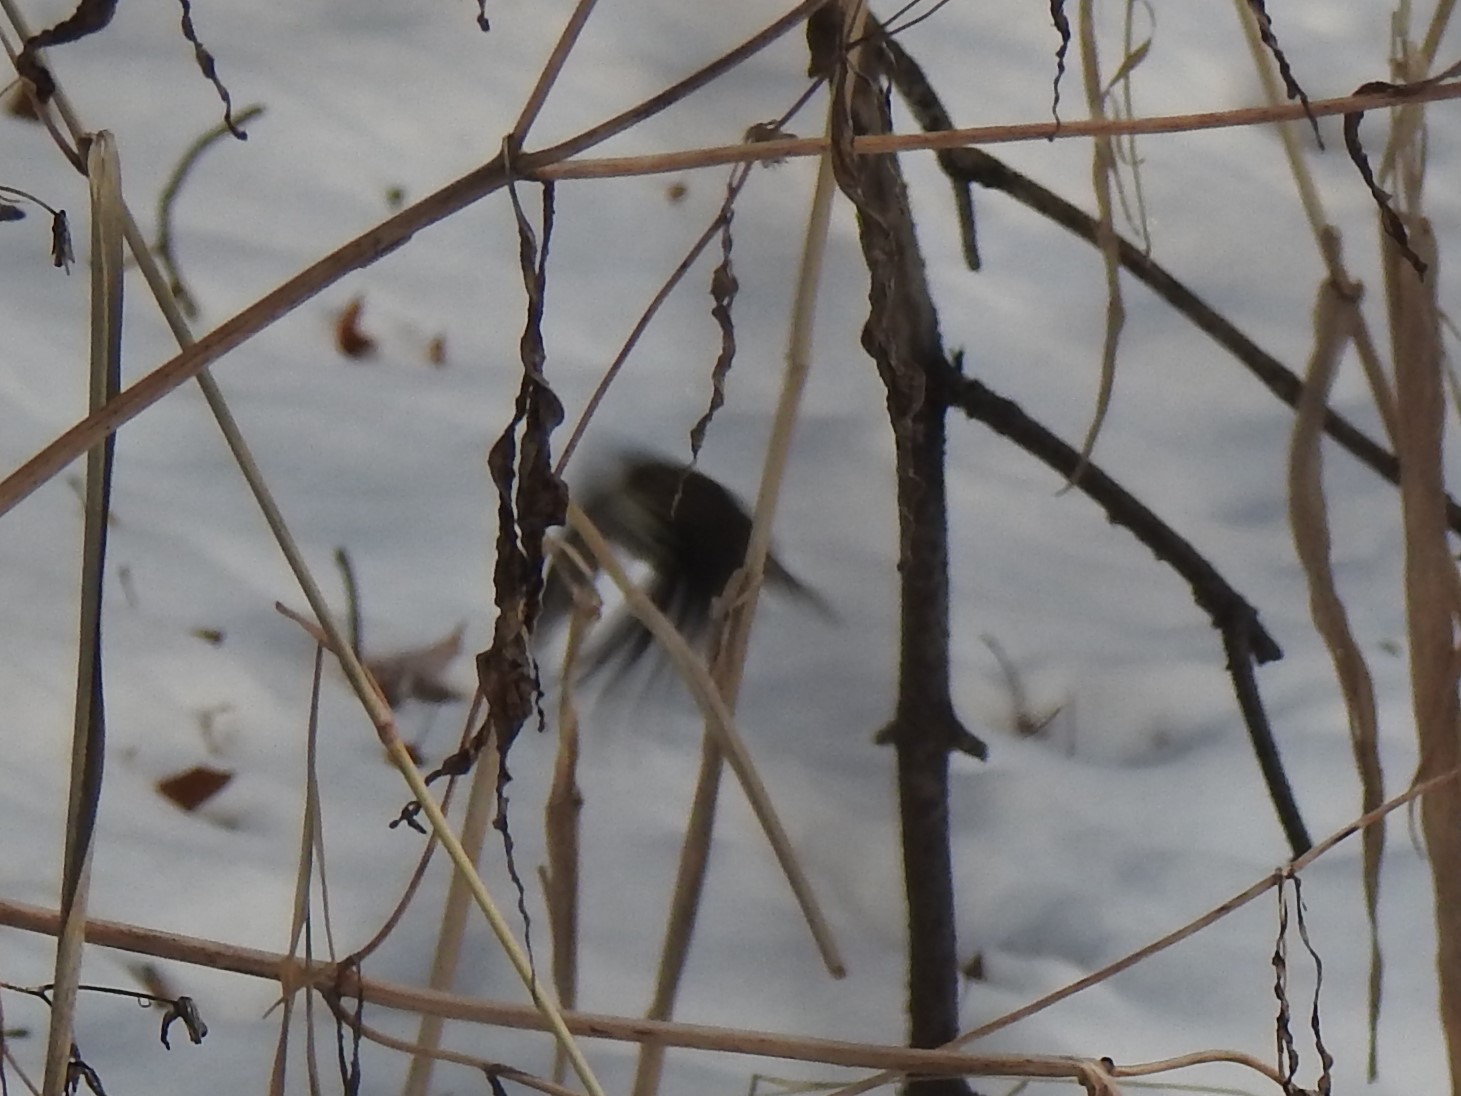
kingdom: Animalia
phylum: Chordata
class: Aves
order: Passeriformes
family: Parulidae
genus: Parkesia
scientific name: Parkesia noveboracensis
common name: Northern waterthrush
